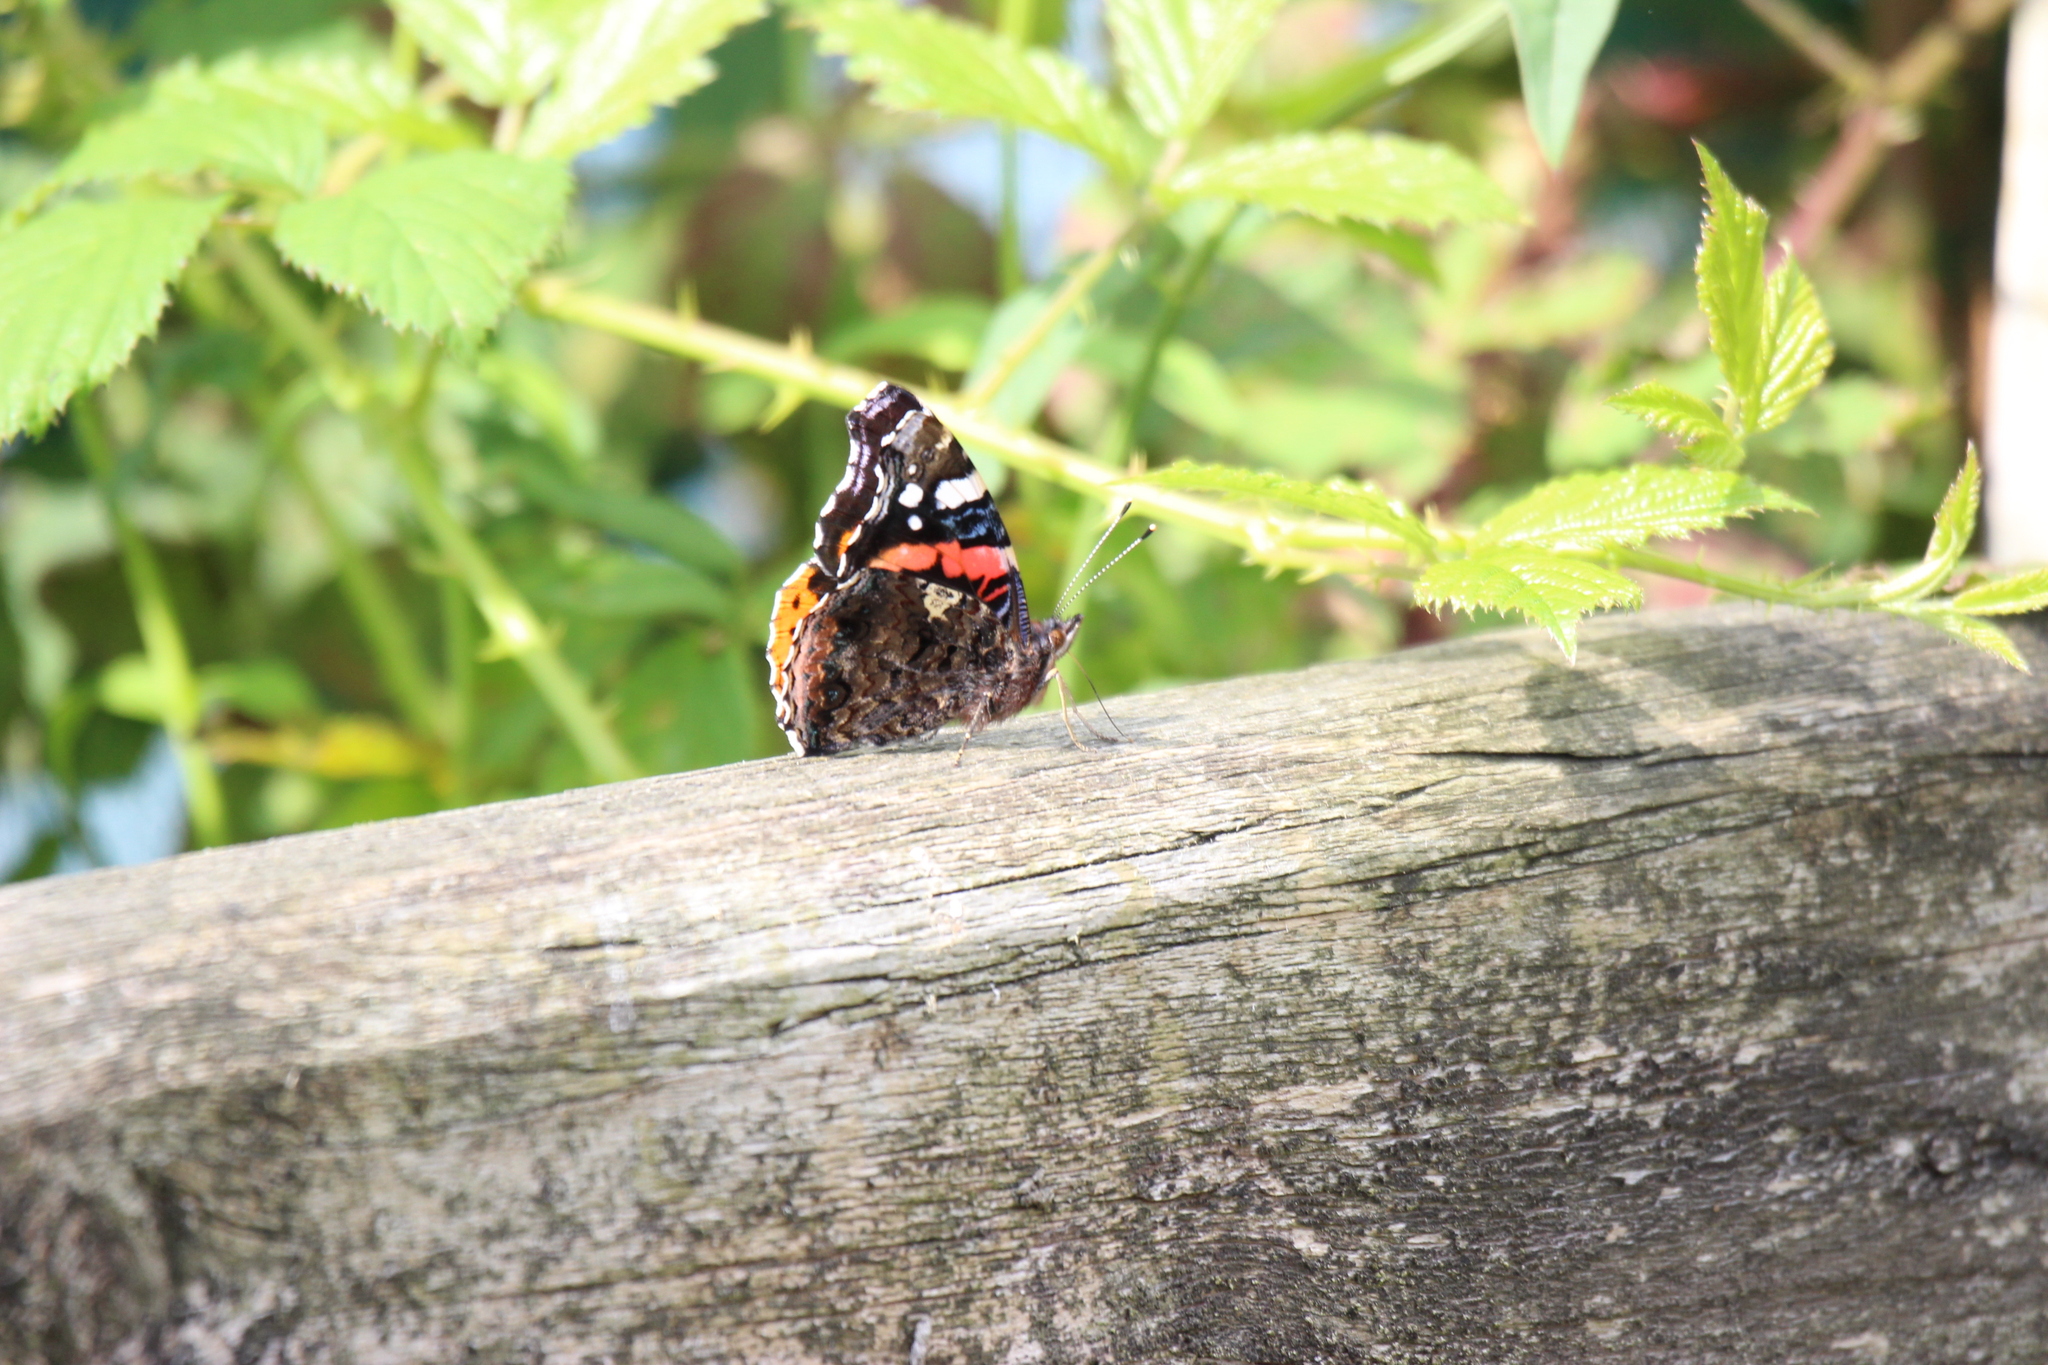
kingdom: Animalia
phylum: Arthropoda
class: Insecta
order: Lepidoptera
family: Nymphalidae
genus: Vanessa
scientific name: Vanessa atalanta
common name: Red admiral
